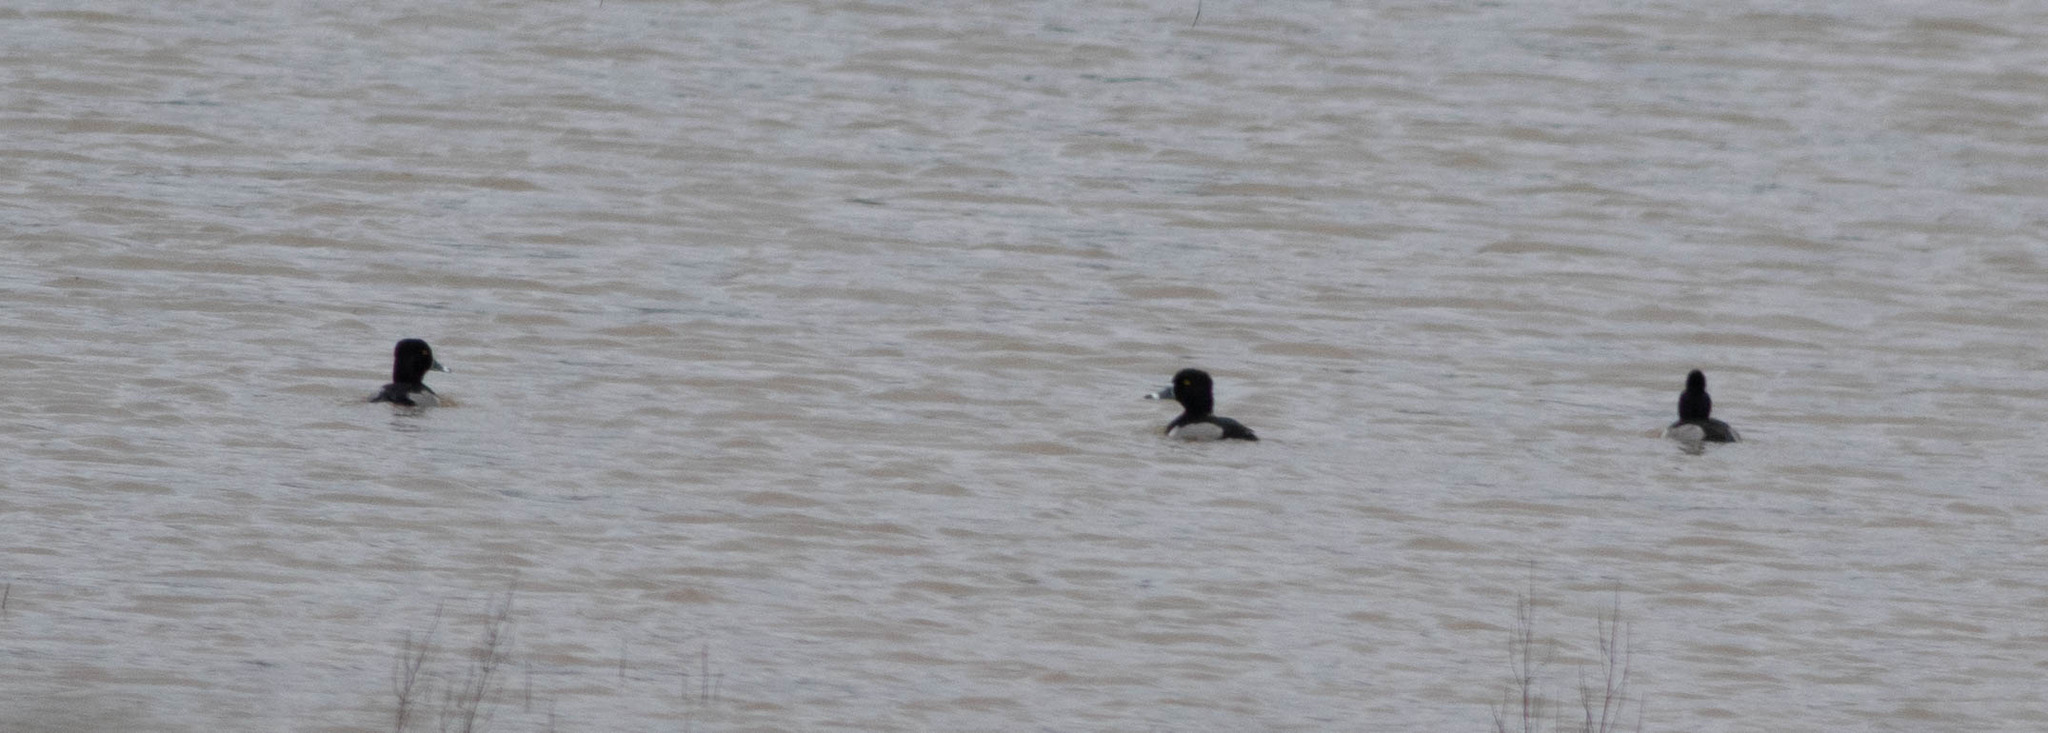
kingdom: Animalia
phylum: Chordata
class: Aves
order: Anseriformes
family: Anatidae
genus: Aythya
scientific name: Aythya collaris
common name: Ring-necked duck
